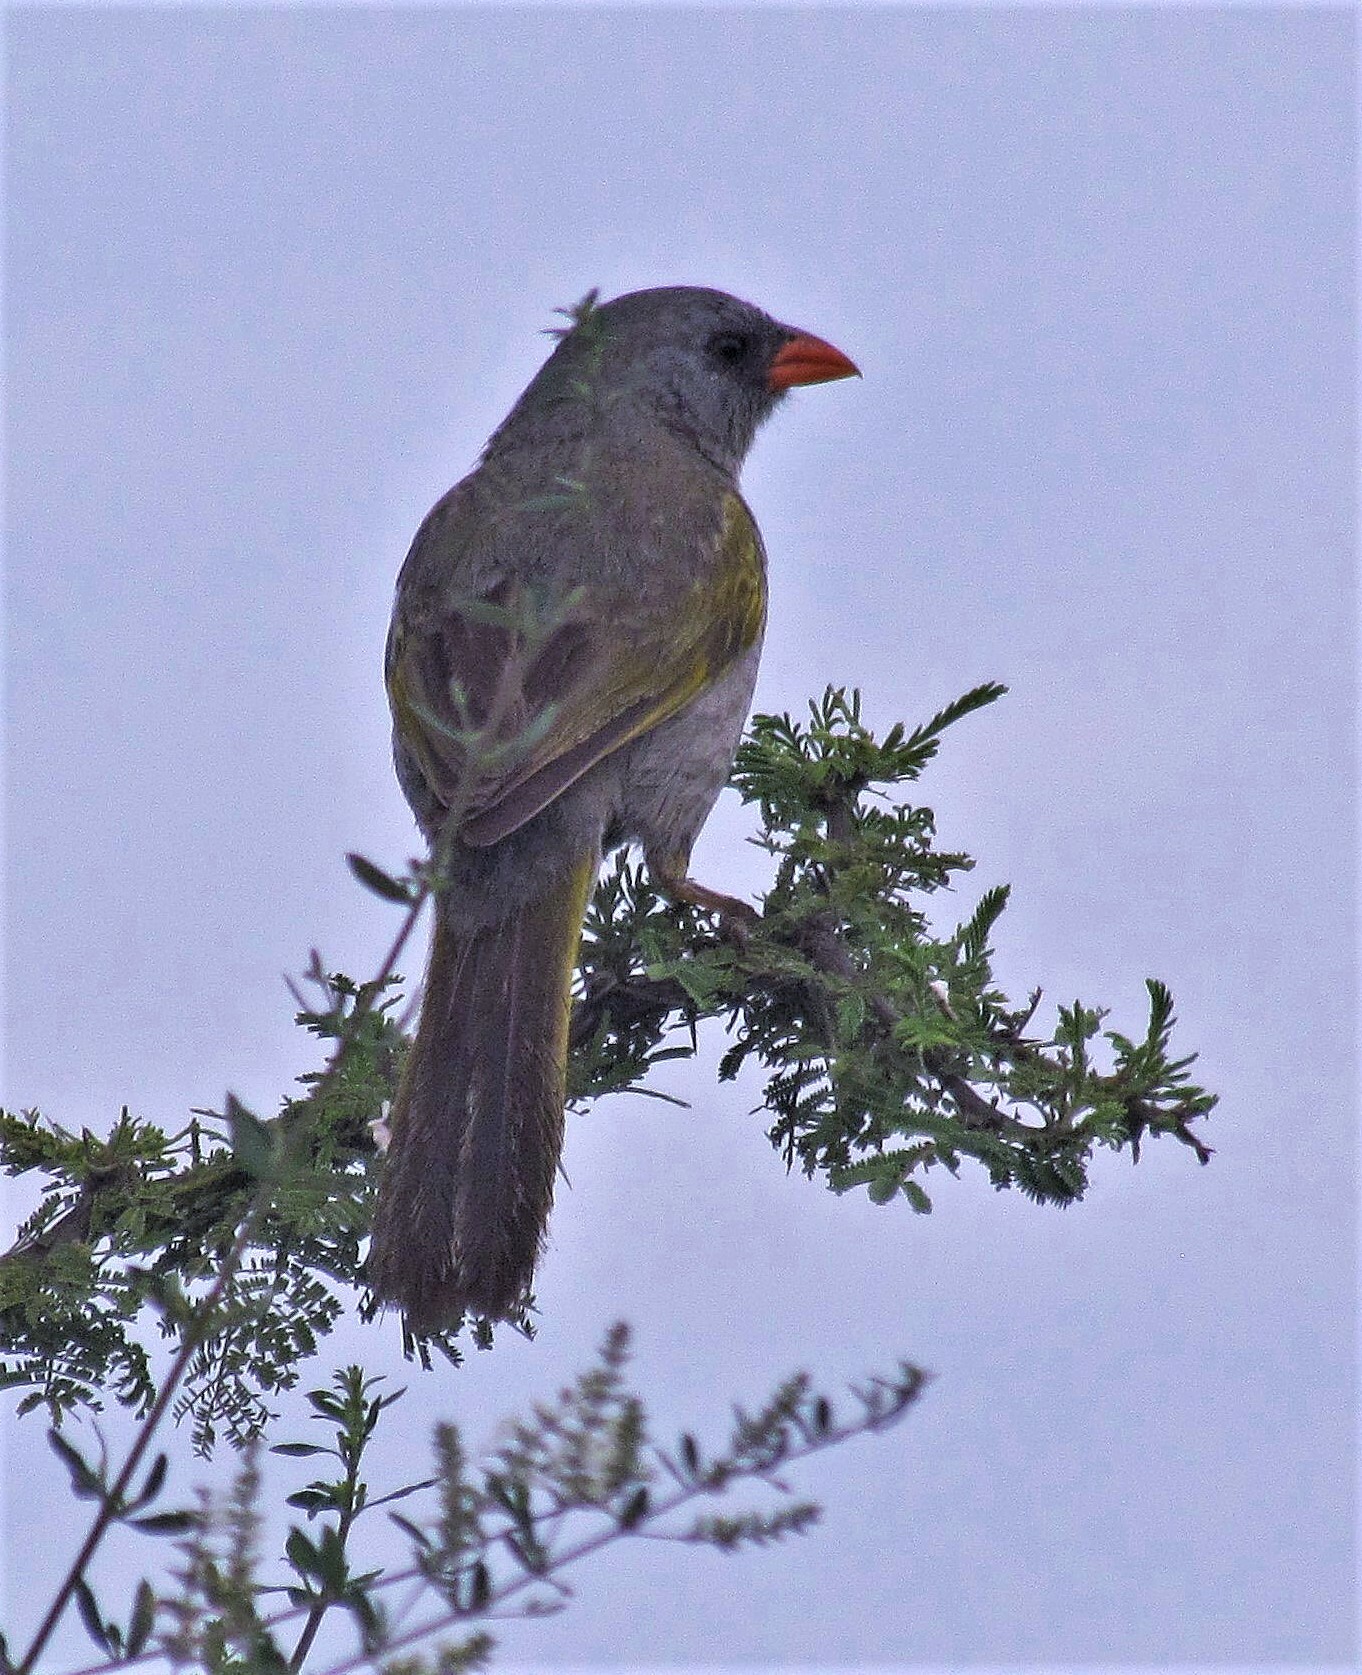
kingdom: Animalia
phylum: Chordata
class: Aves
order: Passeriformes
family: Thraupidae
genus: Embernagra
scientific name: Embernagra platensis
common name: Pampa finch
